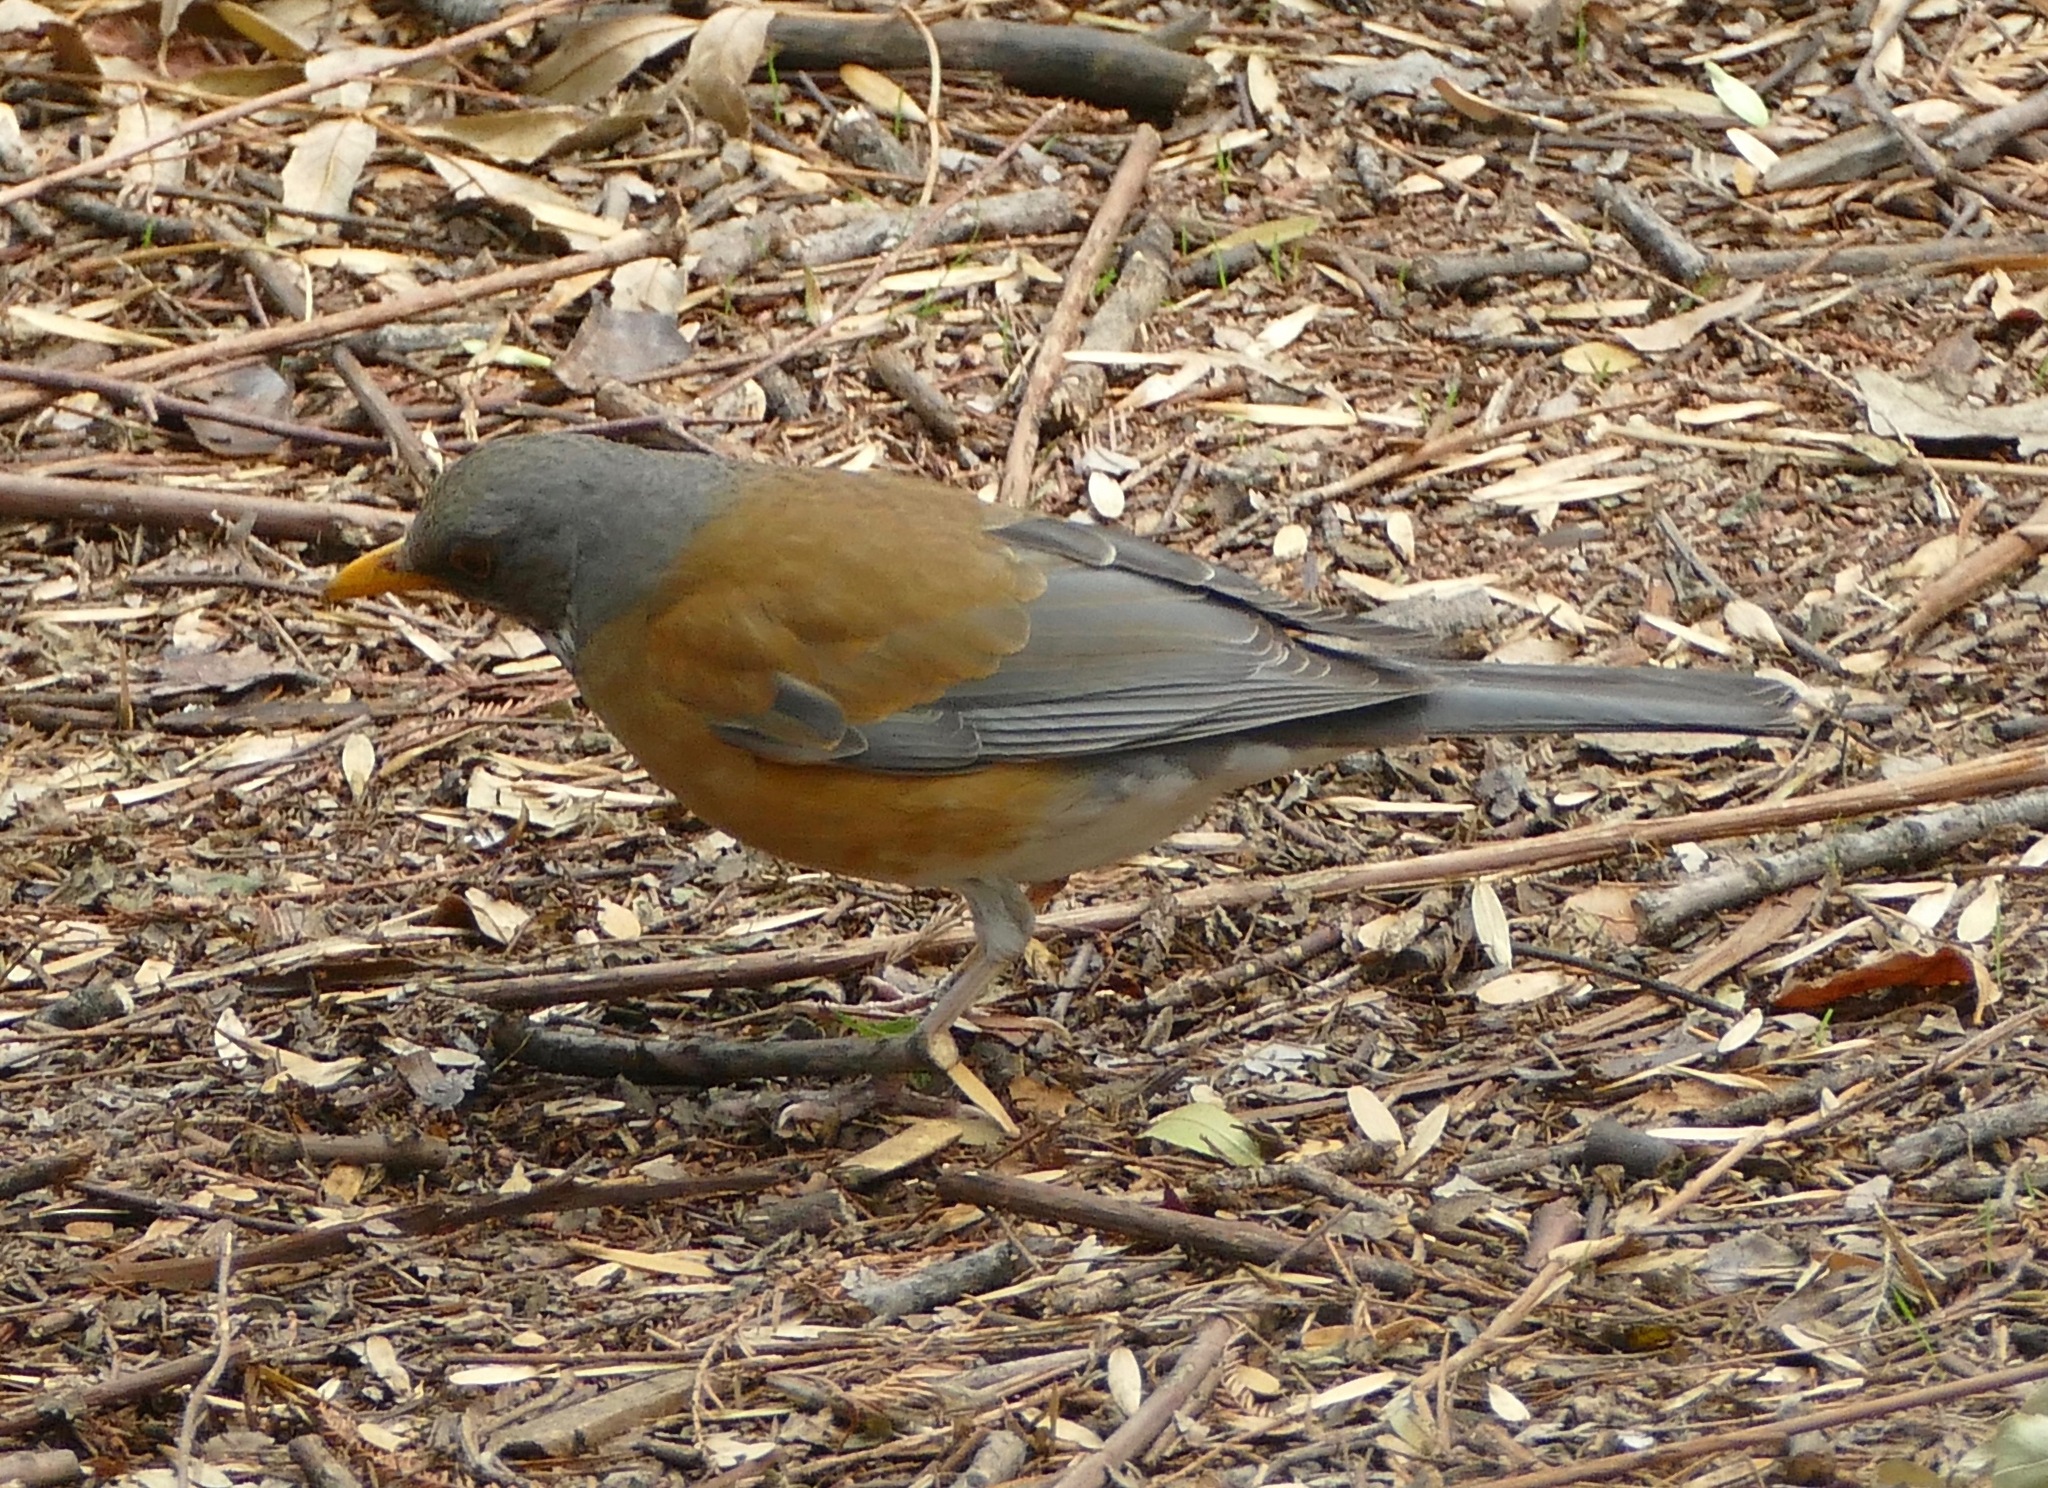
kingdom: Animalia
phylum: Chordata
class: Aves
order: Passeriformes
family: Turdidae
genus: Turdus
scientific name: Turdus rufopalliatus
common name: Rufous-backed robin
